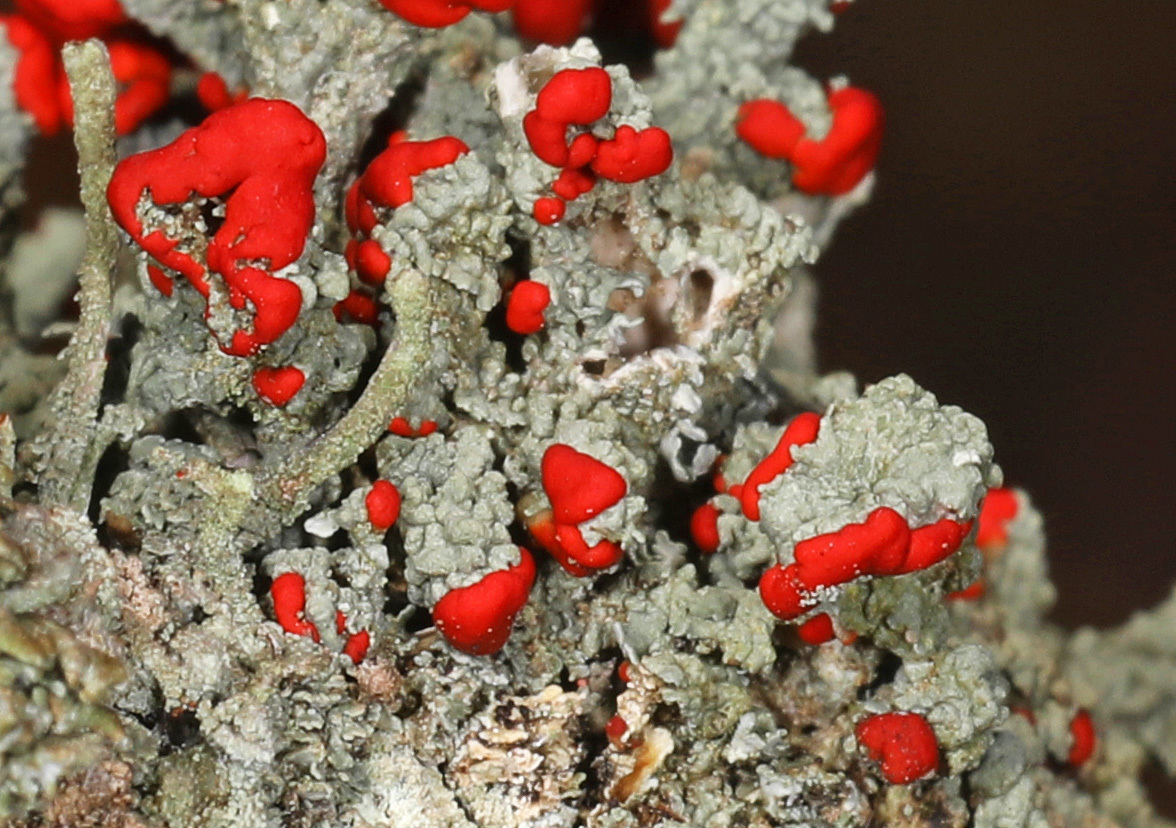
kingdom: Fungi
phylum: Ascomycota
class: Lecanoromycetes
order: Lecanorales
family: Cladoniaceae
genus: Cladonia
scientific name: Cladonia cristatella
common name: British soldier lichen
